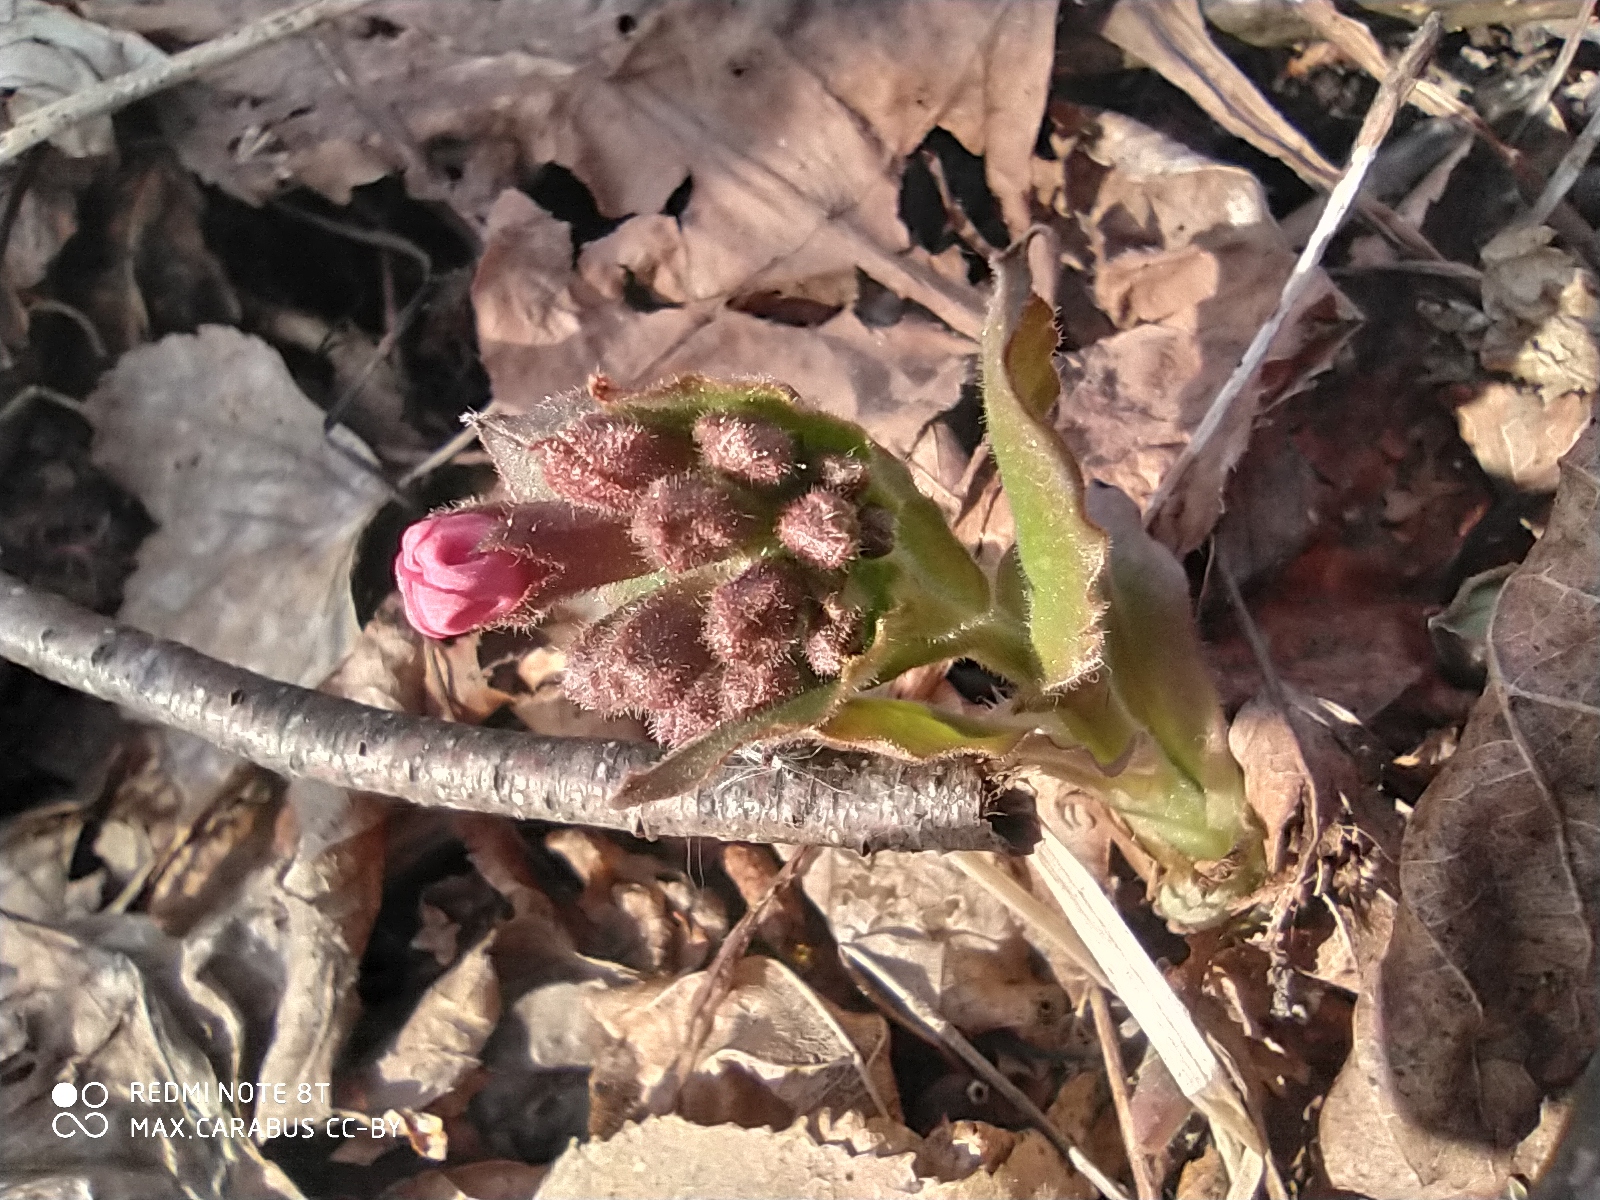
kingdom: Plantae
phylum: Tracheophyta
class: Magnoliopsida
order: Boraginales
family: Boraginaceae
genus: Pulmonaria
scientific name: Pulmonaria obscura
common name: Suffolk lungwort
